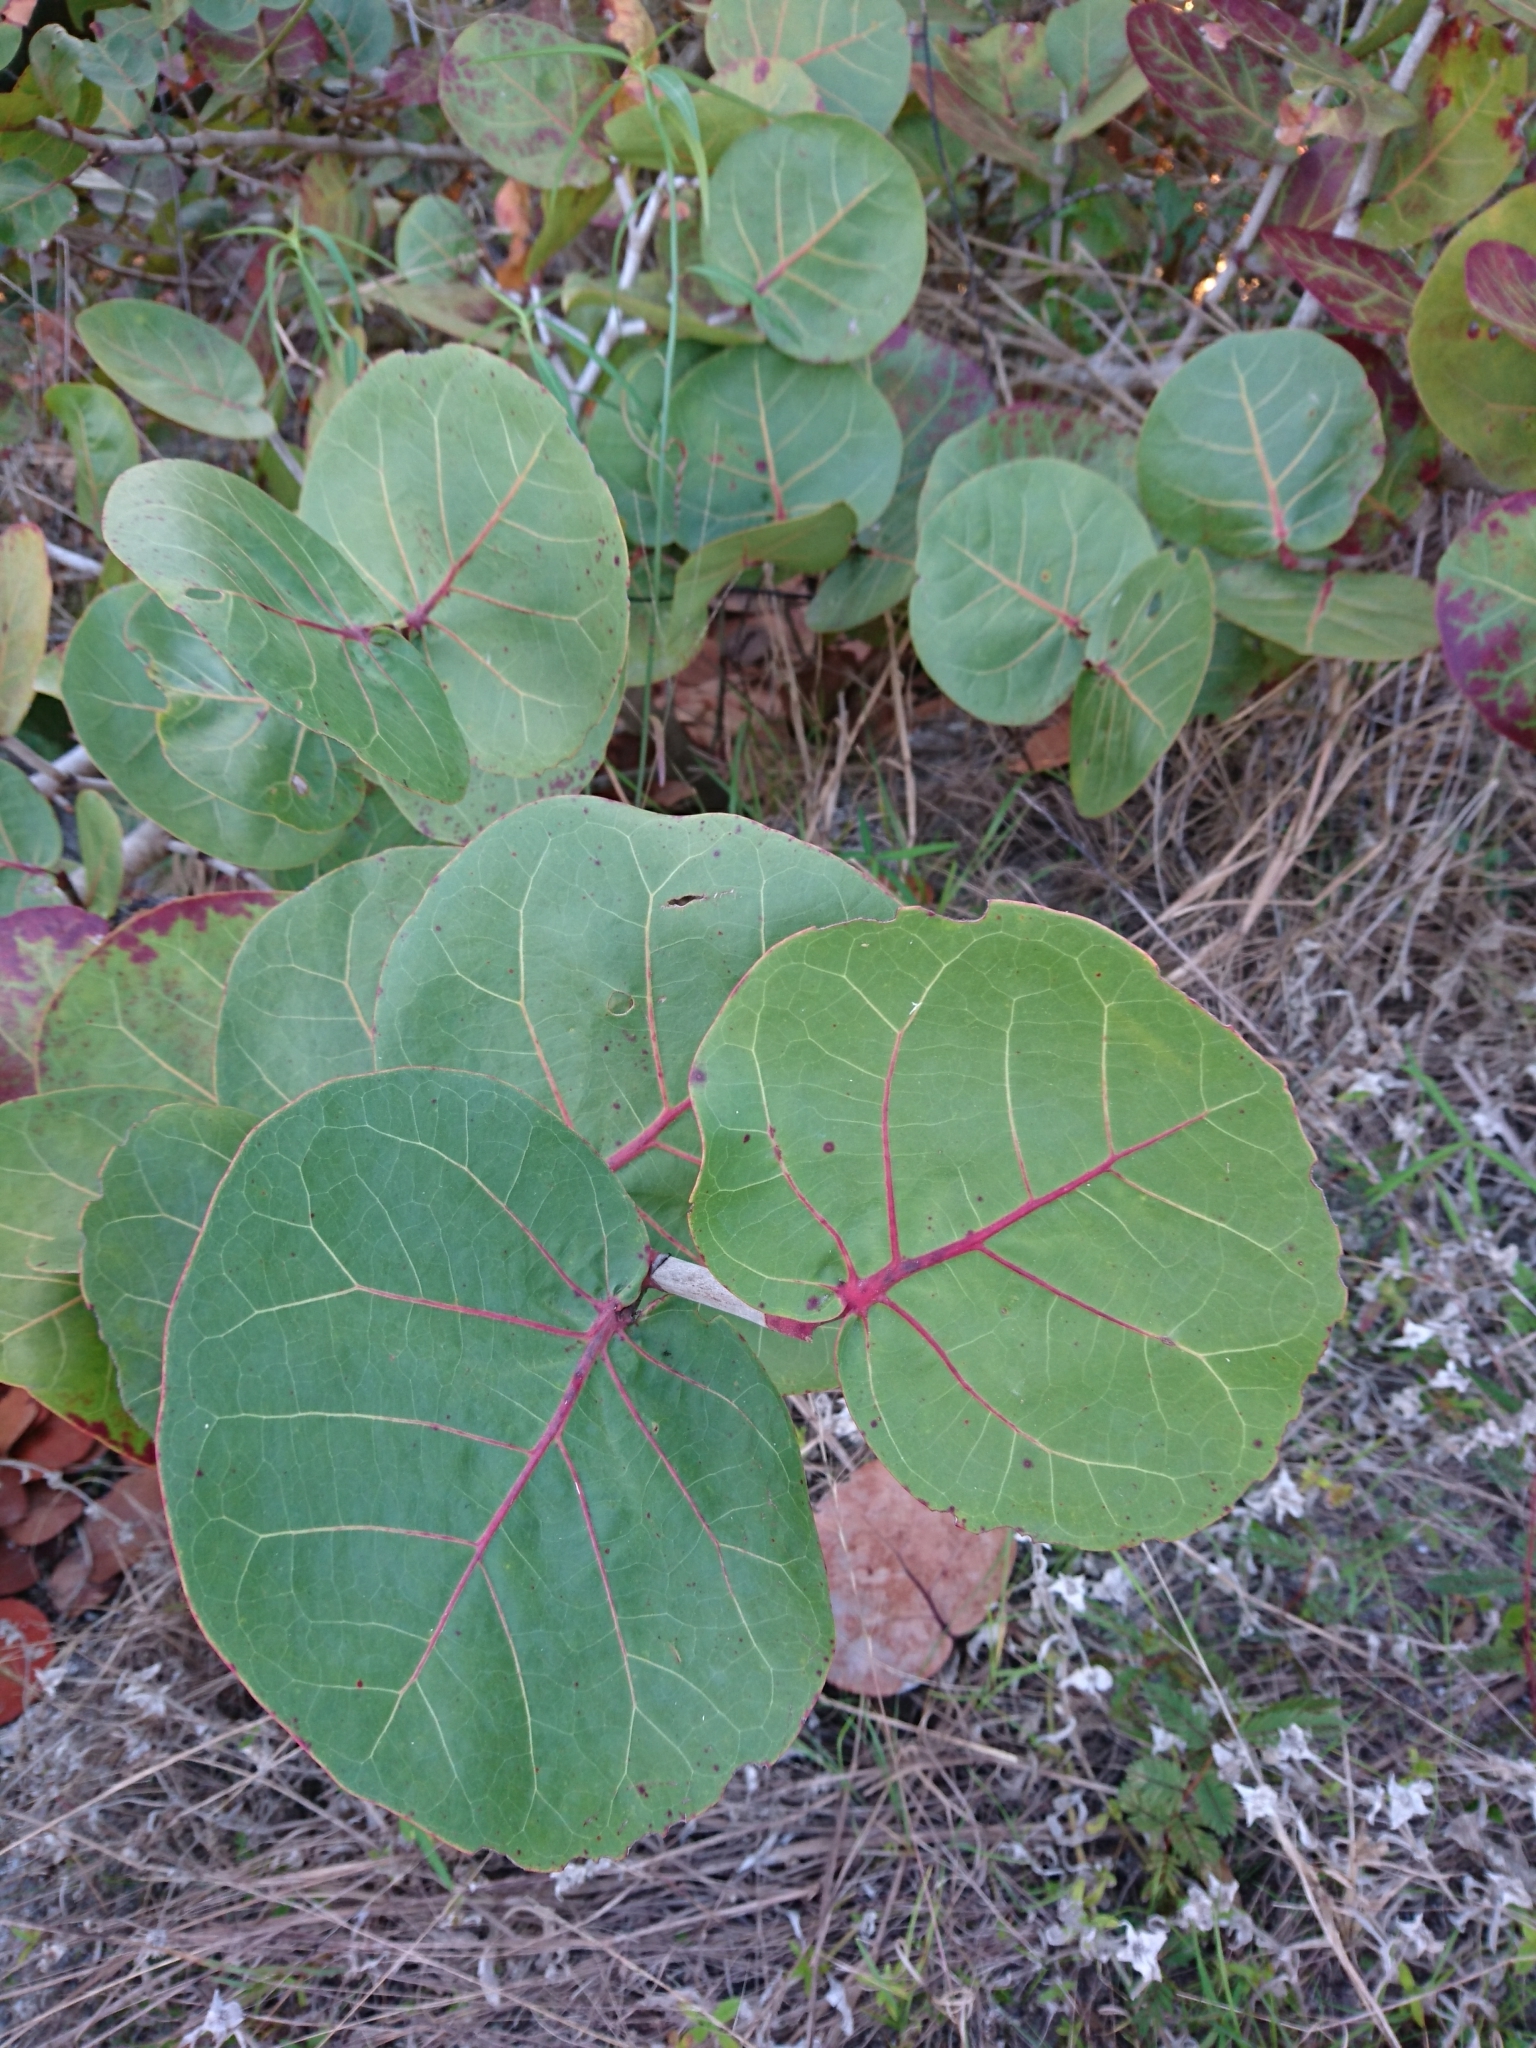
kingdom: Plantae
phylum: Tracheophyta
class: Magnoliopsida
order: Caryophyllales
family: Polygonaceae
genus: Coccoloba
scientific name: Coccoloba uvifera
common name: Seagrape
